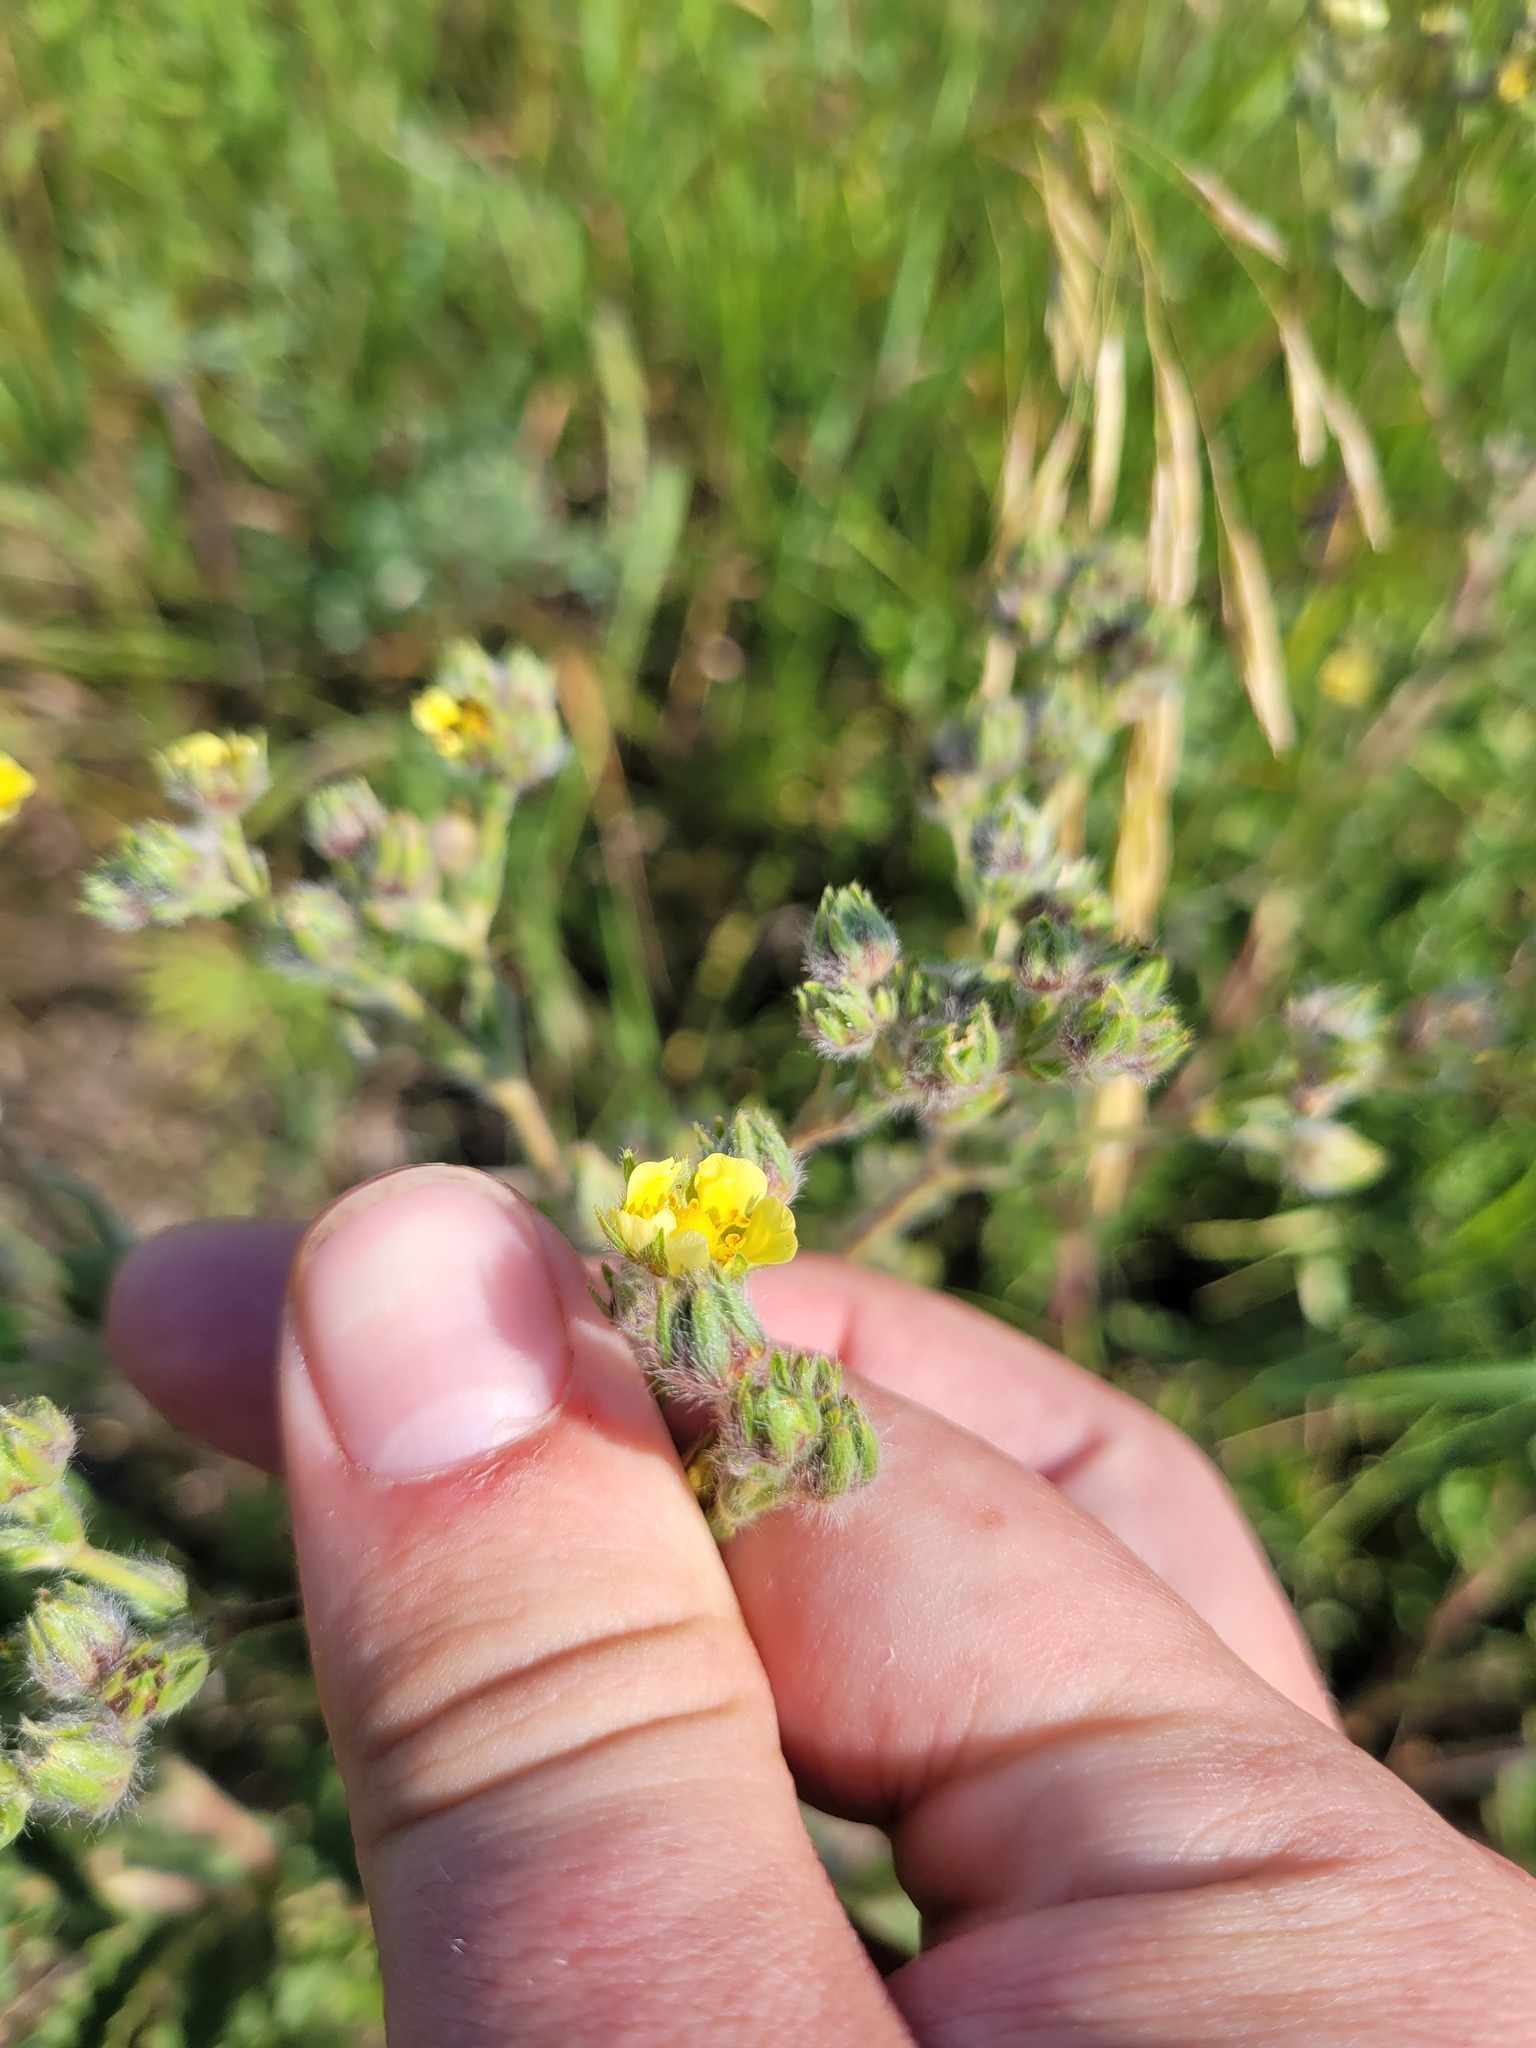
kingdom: Plantae
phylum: Tracheophyta
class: Magnoliopsida
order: Rosales
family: Rosaceae
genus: Potentilla
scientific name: Potentilla recta
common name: Sulphur cinquefoil
